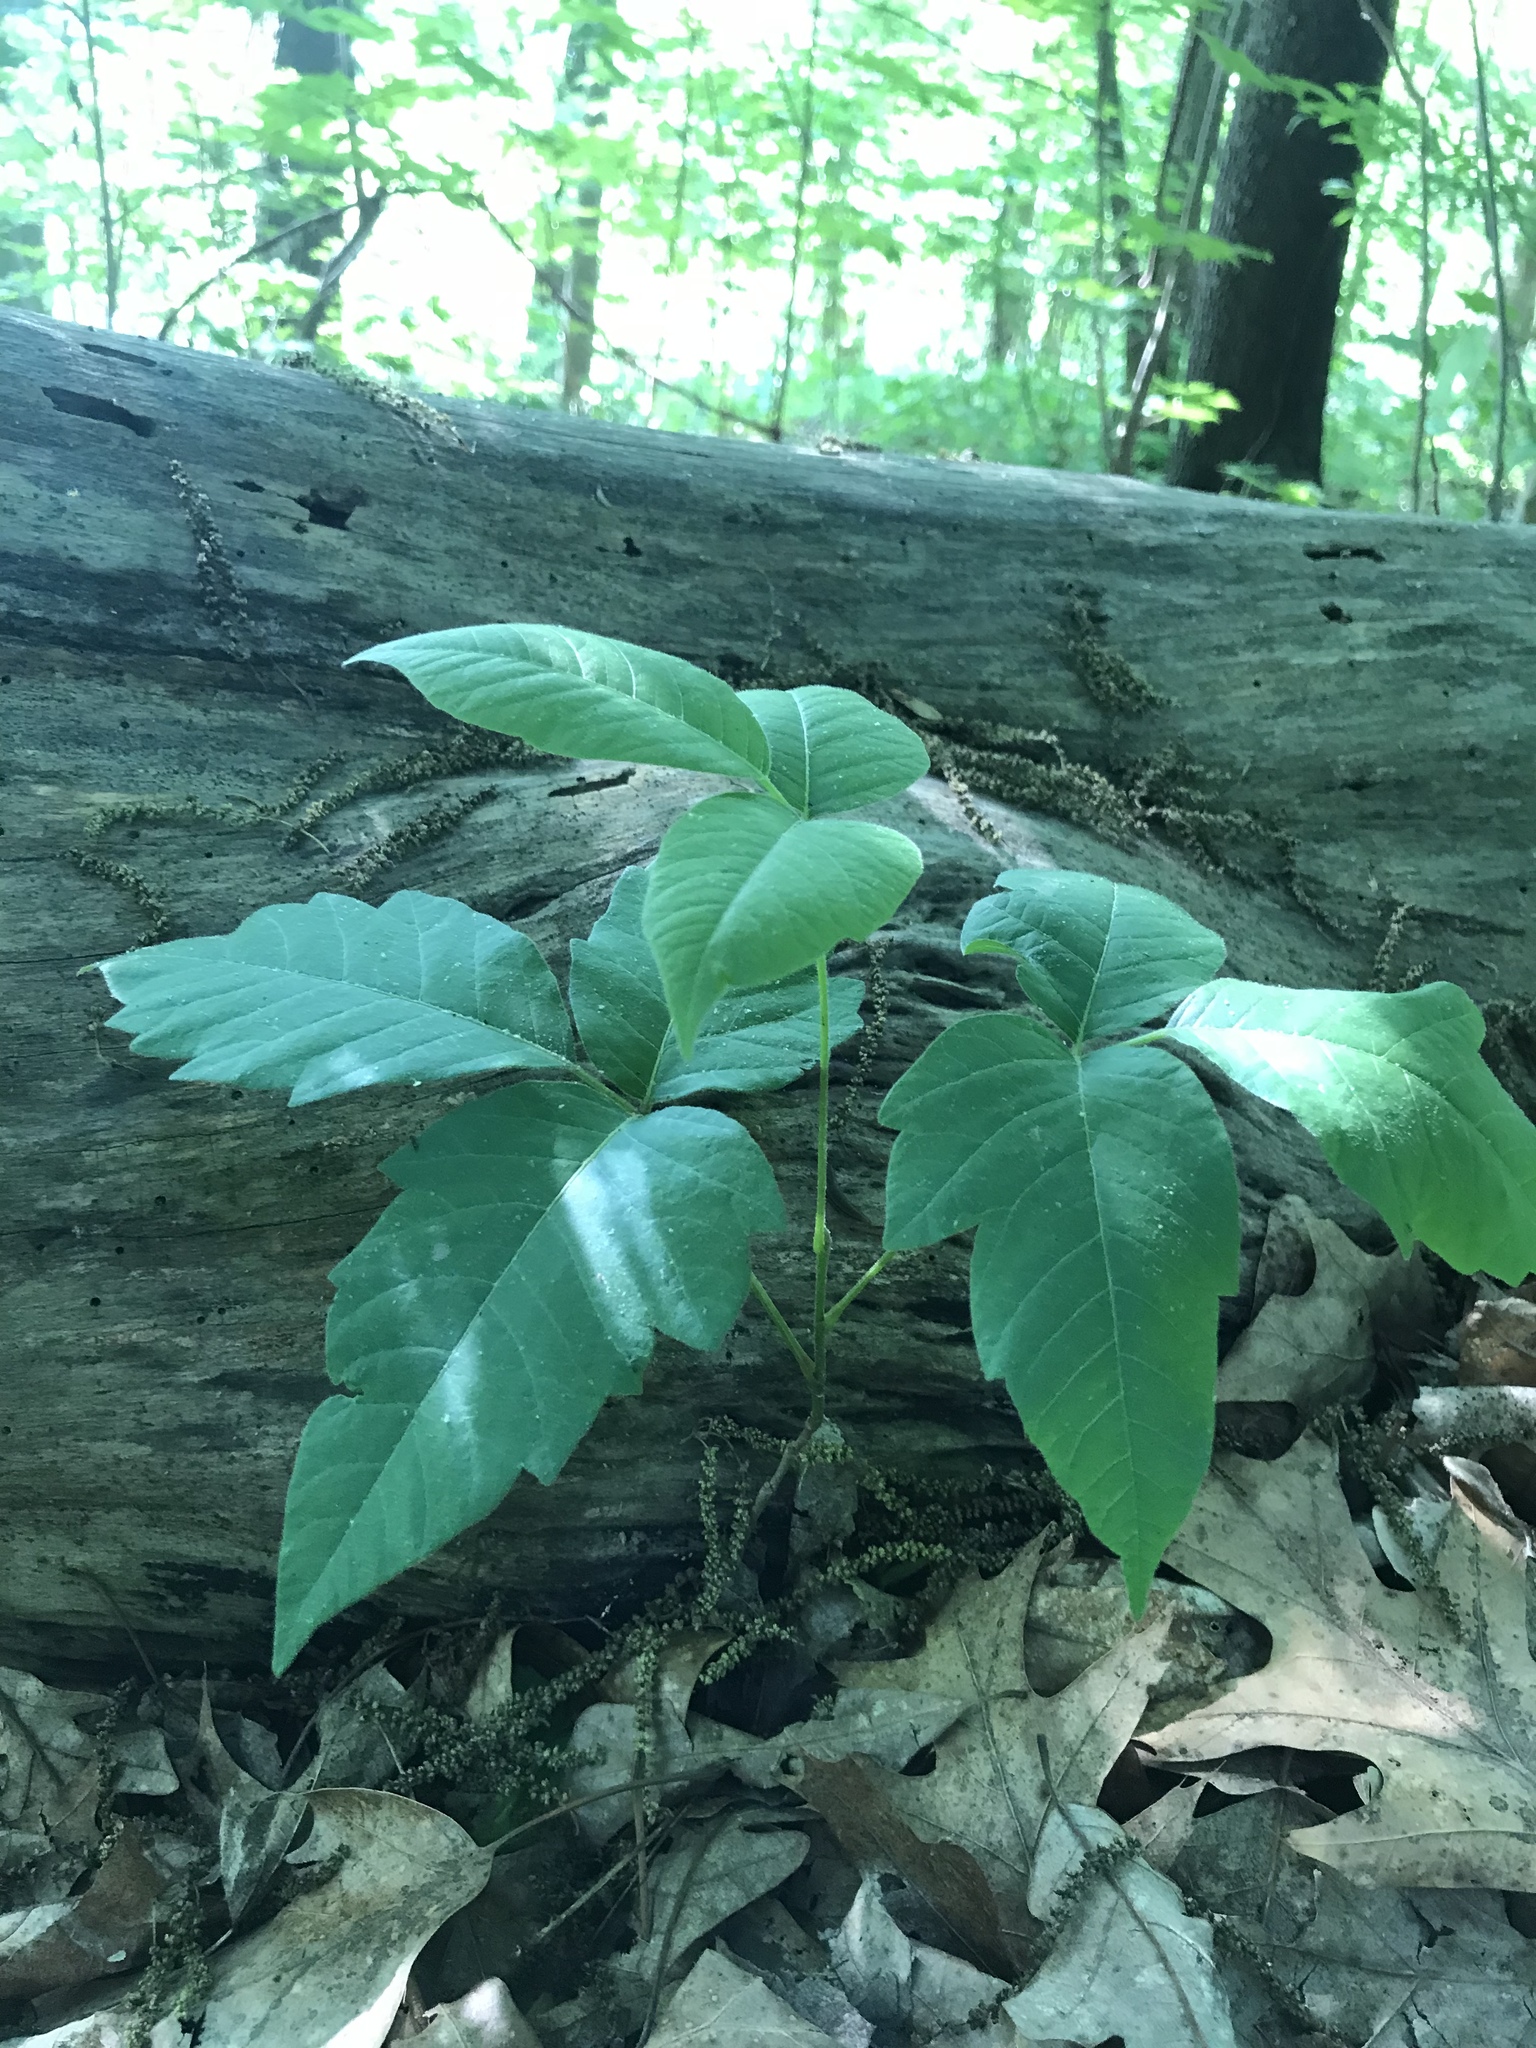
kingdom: Plantae
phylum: Tracheophyta
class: Magnoliopsida
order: Sapindales
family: Anacardiaceae
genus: Toxicodendron
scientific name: Toxicodendron radicans
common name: Poison ivy
